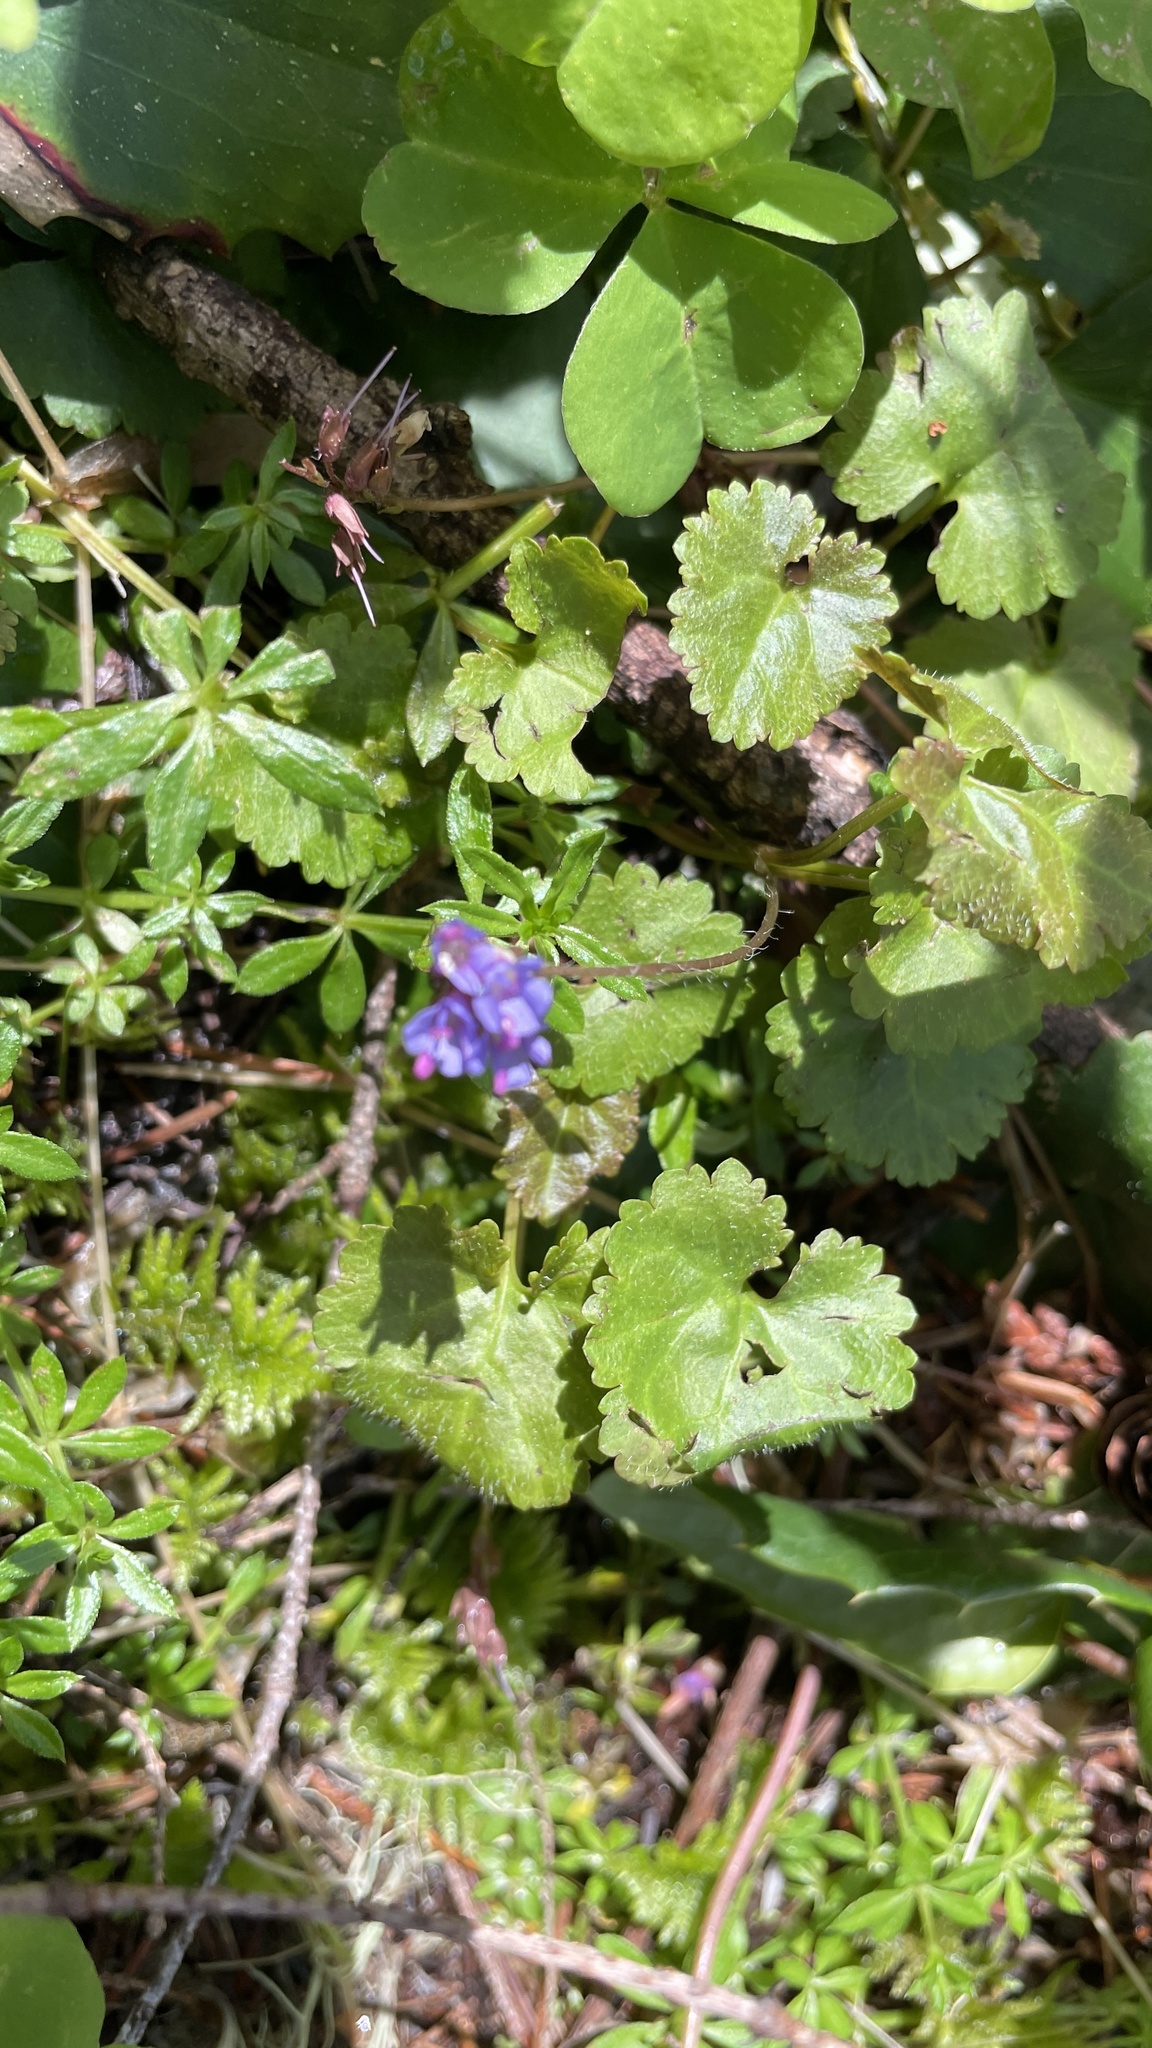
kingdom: Plantae
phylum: Tracheophyta
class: Magnoliopsida
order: Lamiales
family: Plantaginaceae
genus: Synthyris
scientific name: Synthyris reniformis
